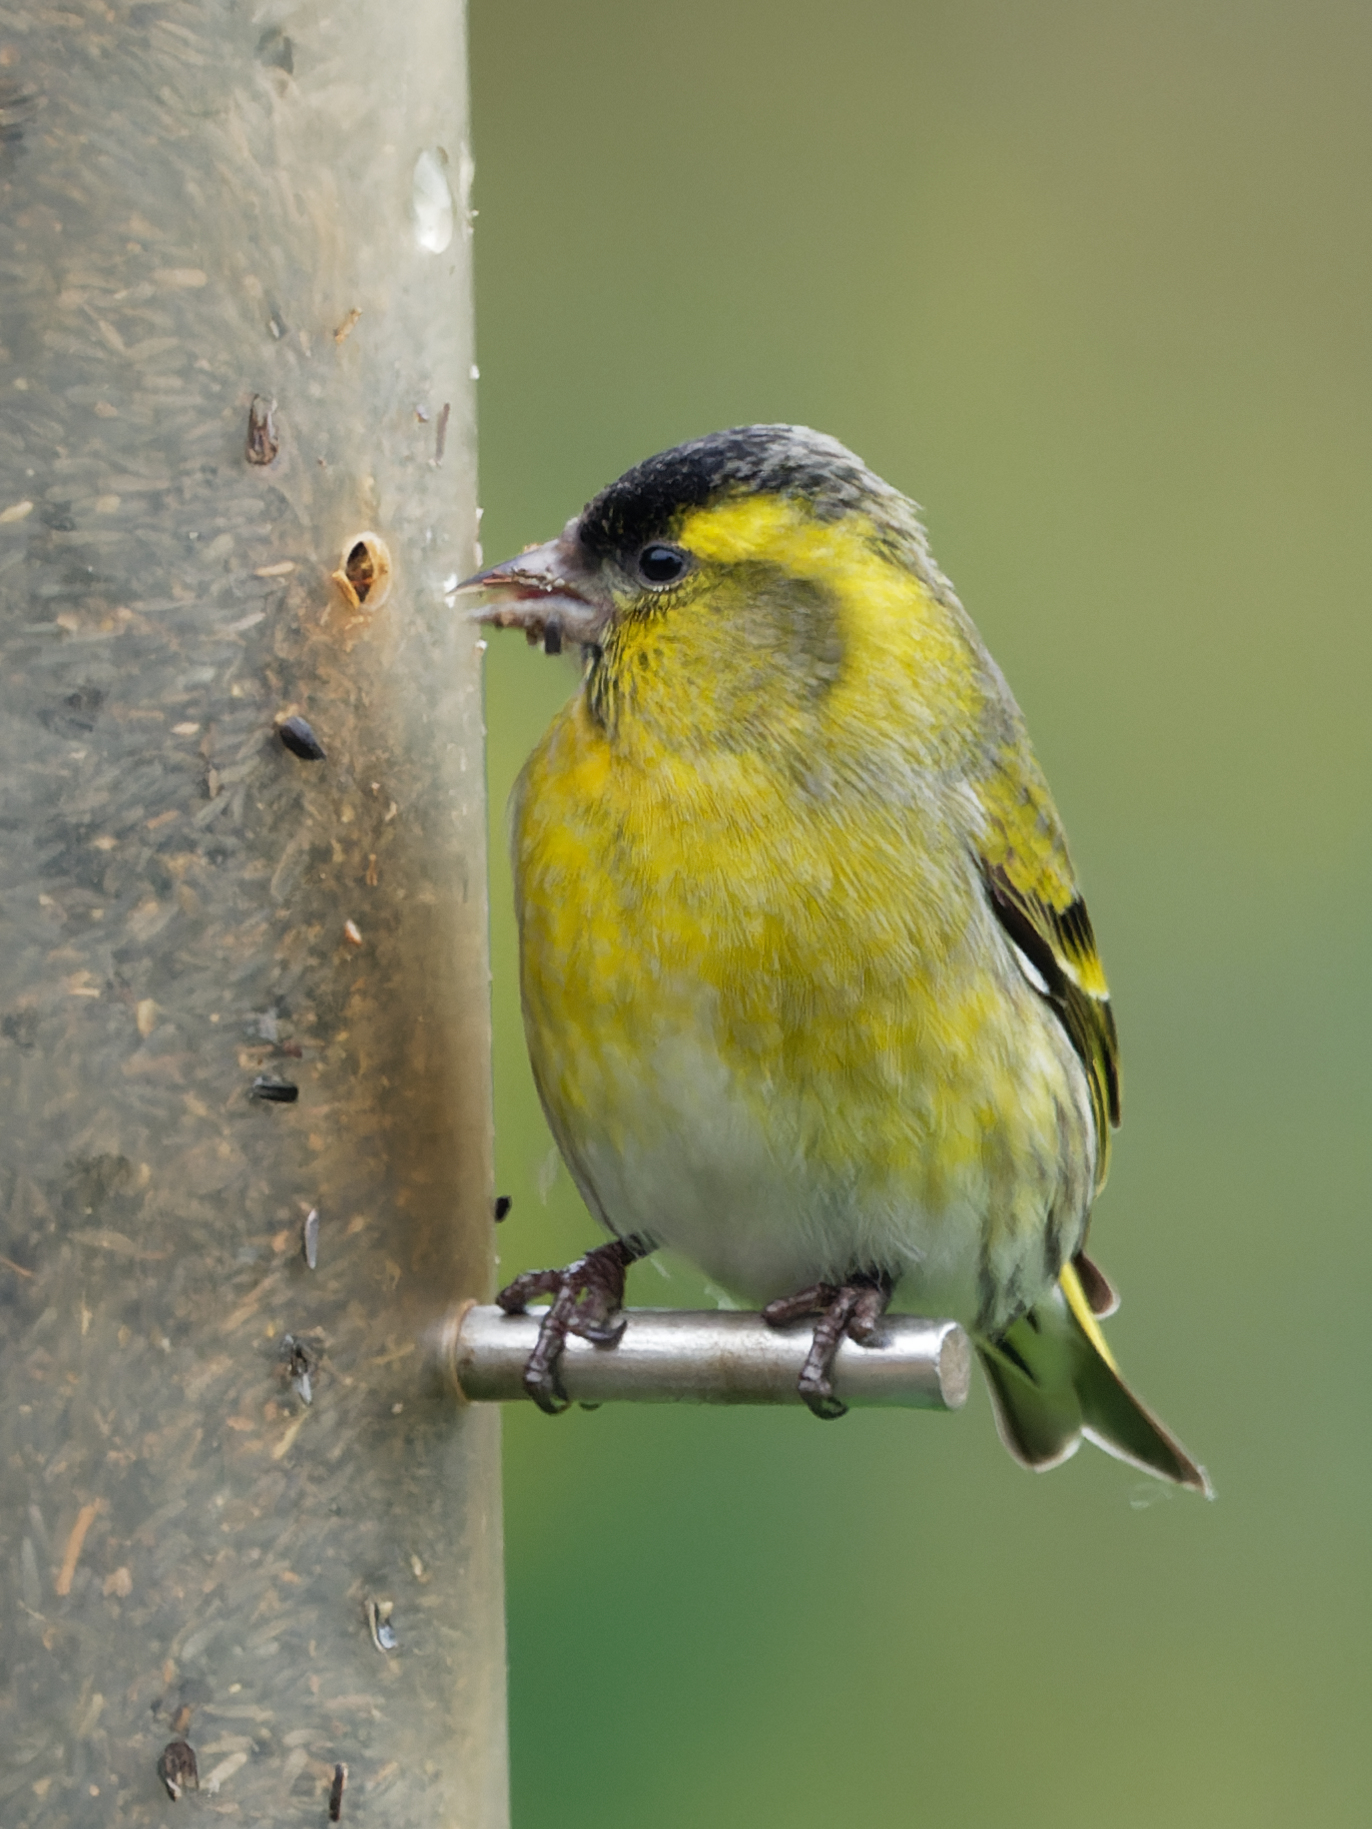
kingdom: Animalia
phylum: Chordata
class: Aves
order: Passeriformes
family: Fringillidae
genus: Spinus
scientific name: Spinus spinus
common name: Eurasian siskin
